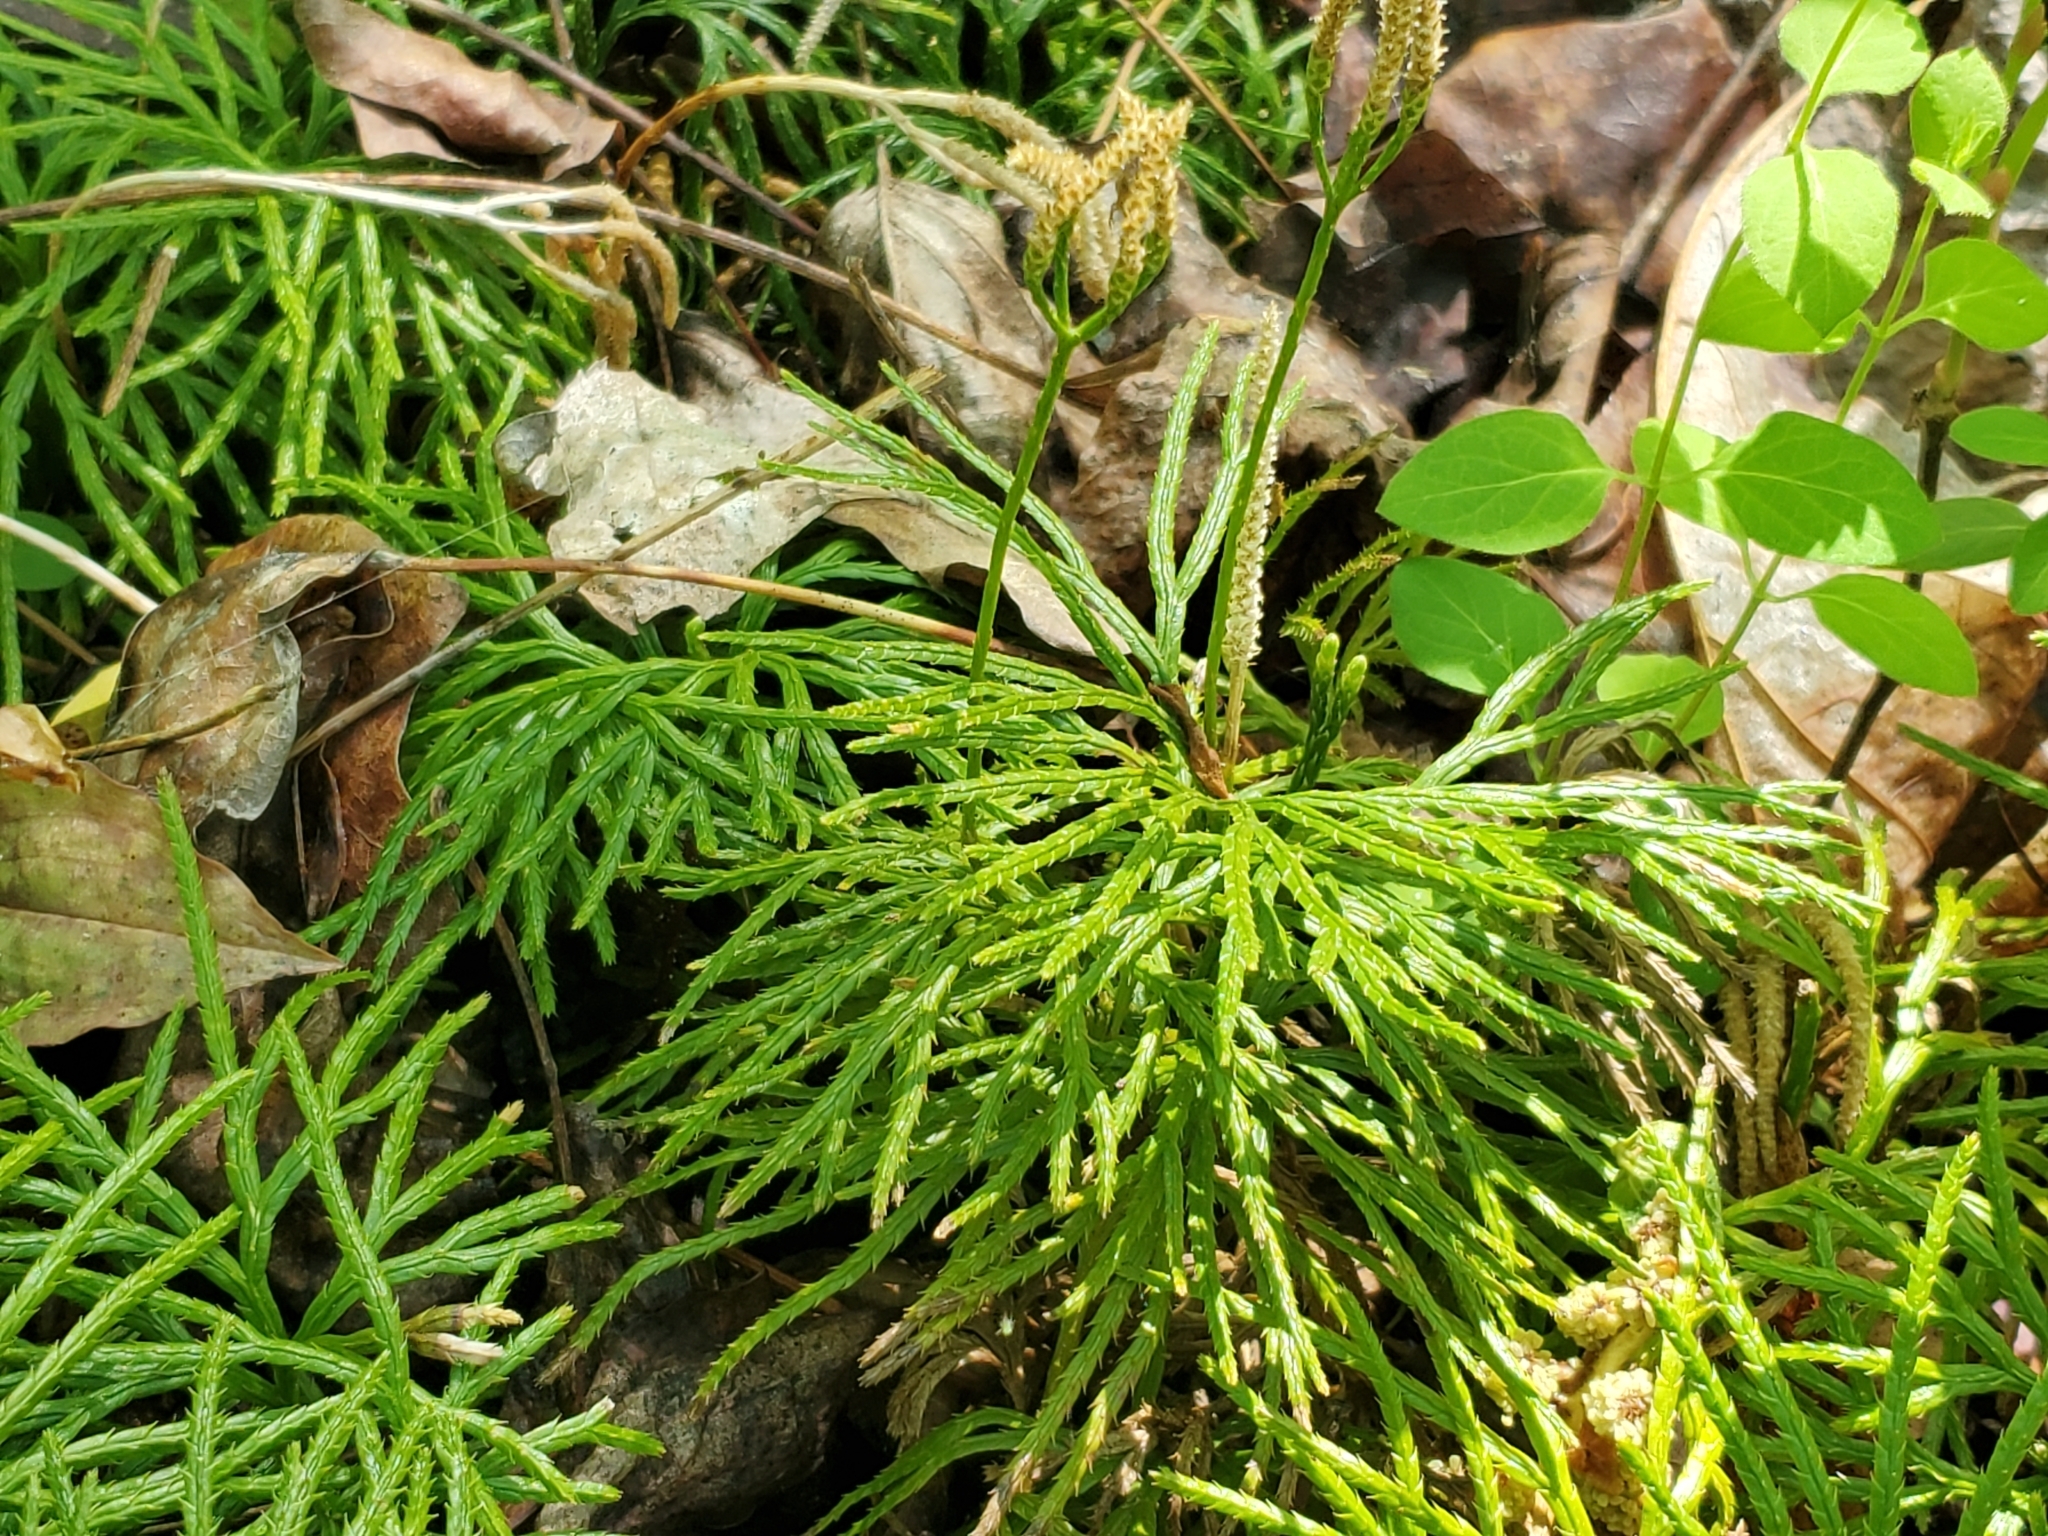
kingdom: Plantae
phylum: Tracheophyta
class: Lycopodiopsida
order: Lycopodiales
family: Lycopodiaceae
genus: Diphasiastrum
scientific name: Diphasiastrum digitatum
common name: Southern running-pine
